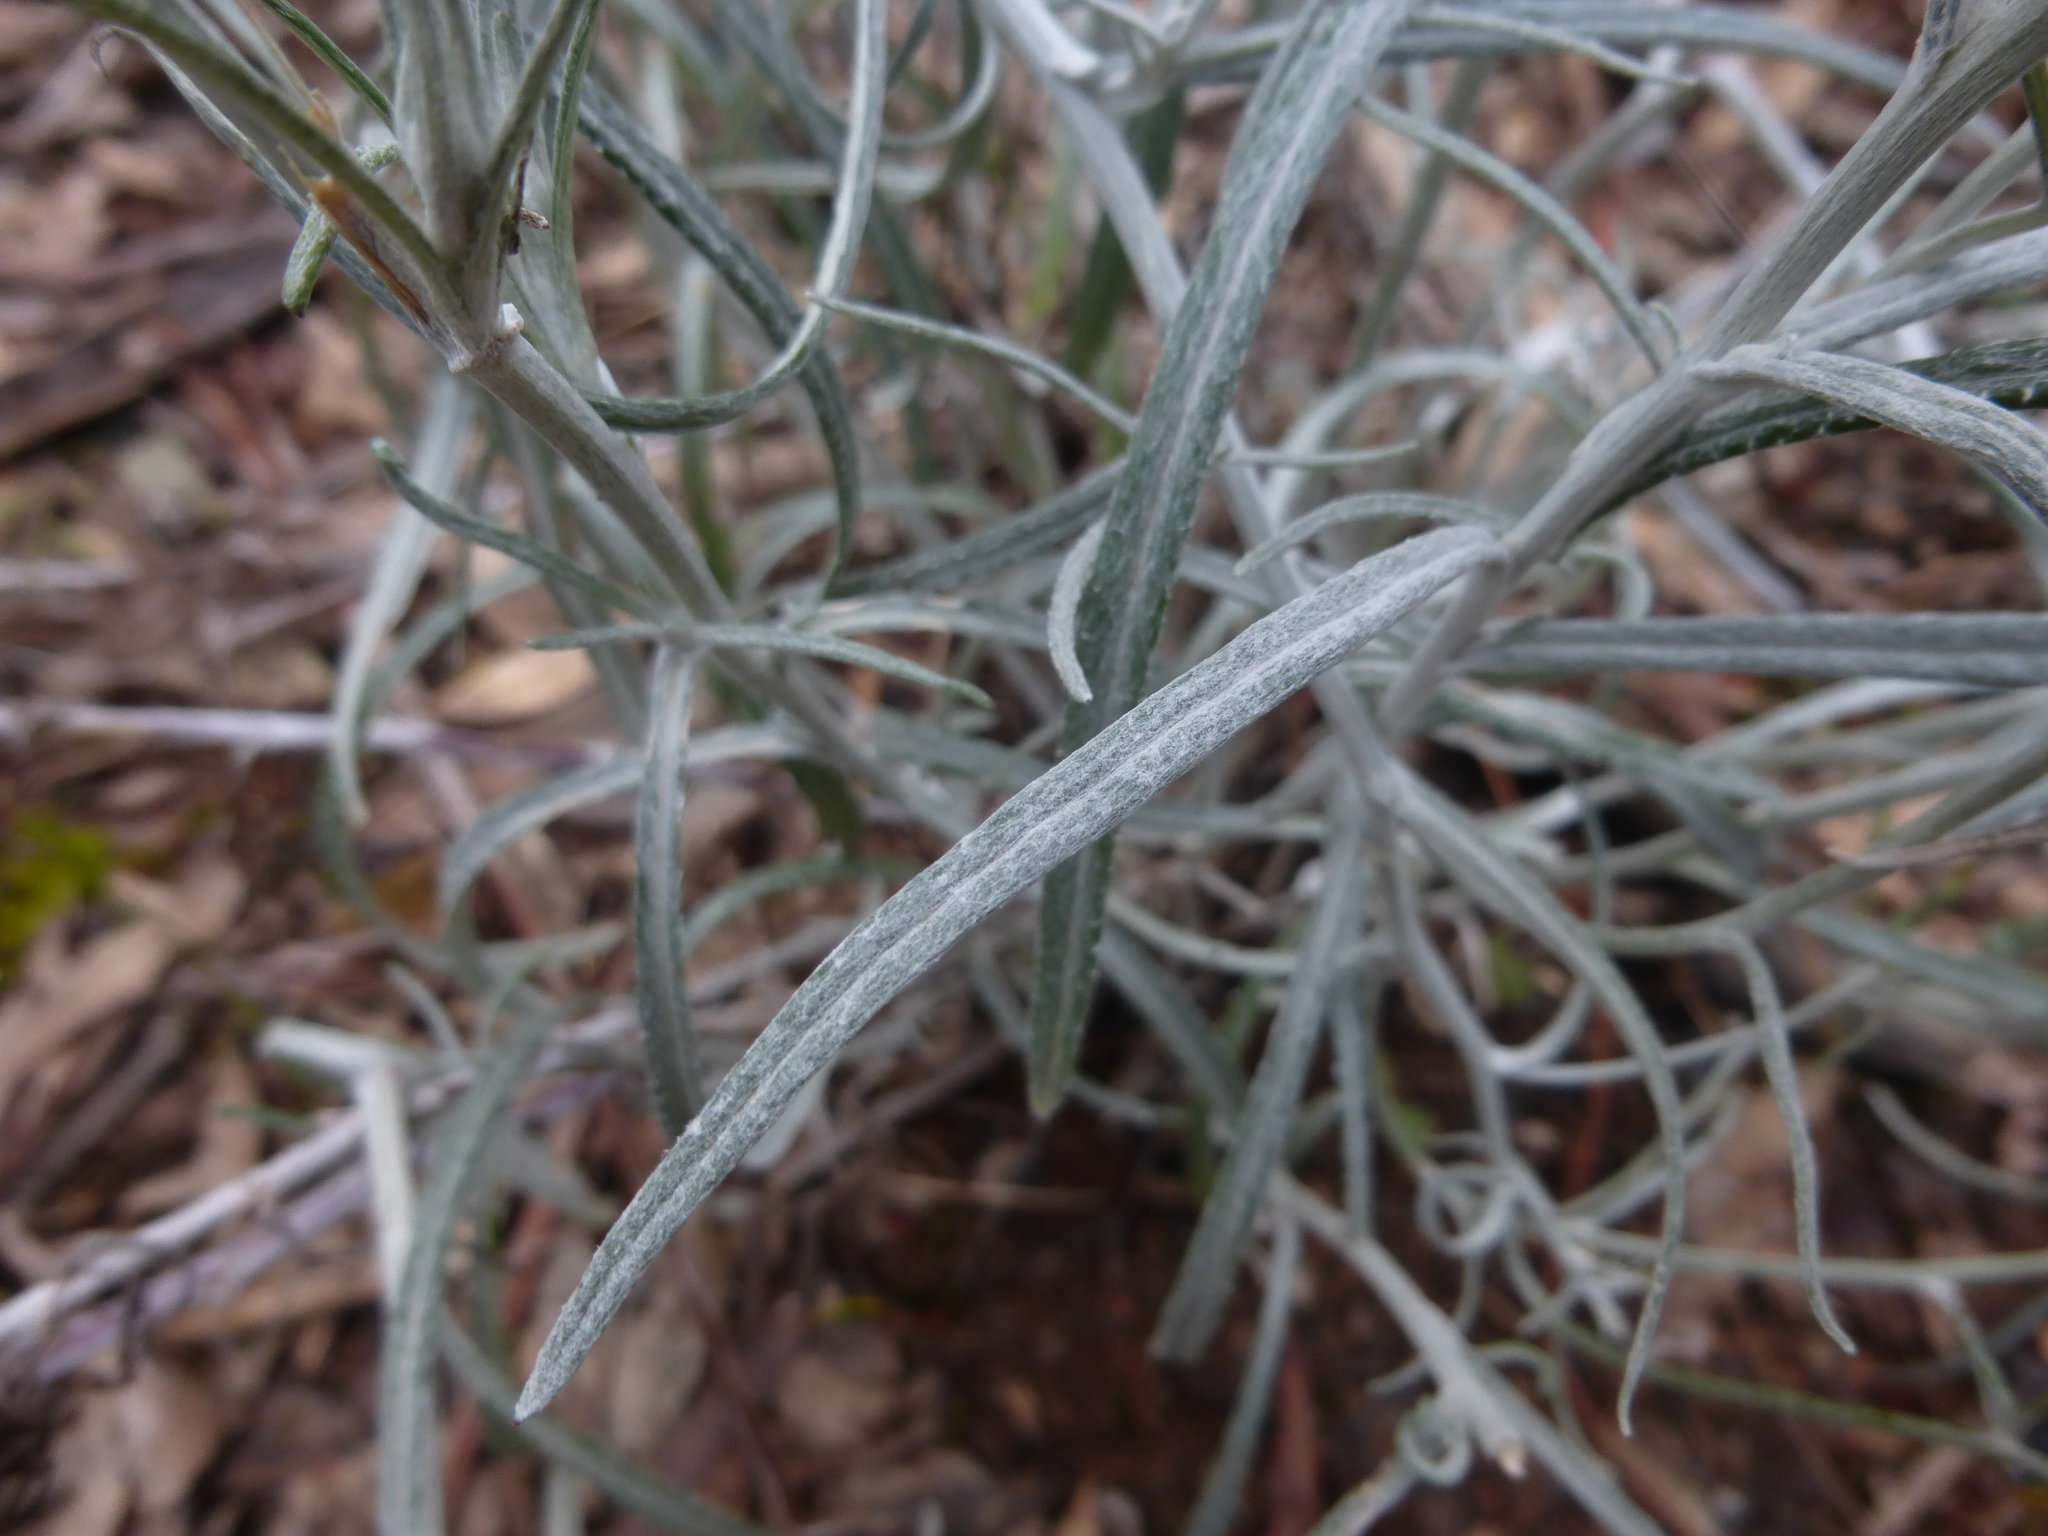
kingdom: Plantae
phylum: Tracheophyta
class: Magnoliopsida
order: Asterales
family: Asteraceae
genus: Senecio
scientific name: Senecio quadridentatus
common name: Cotton fireweed
